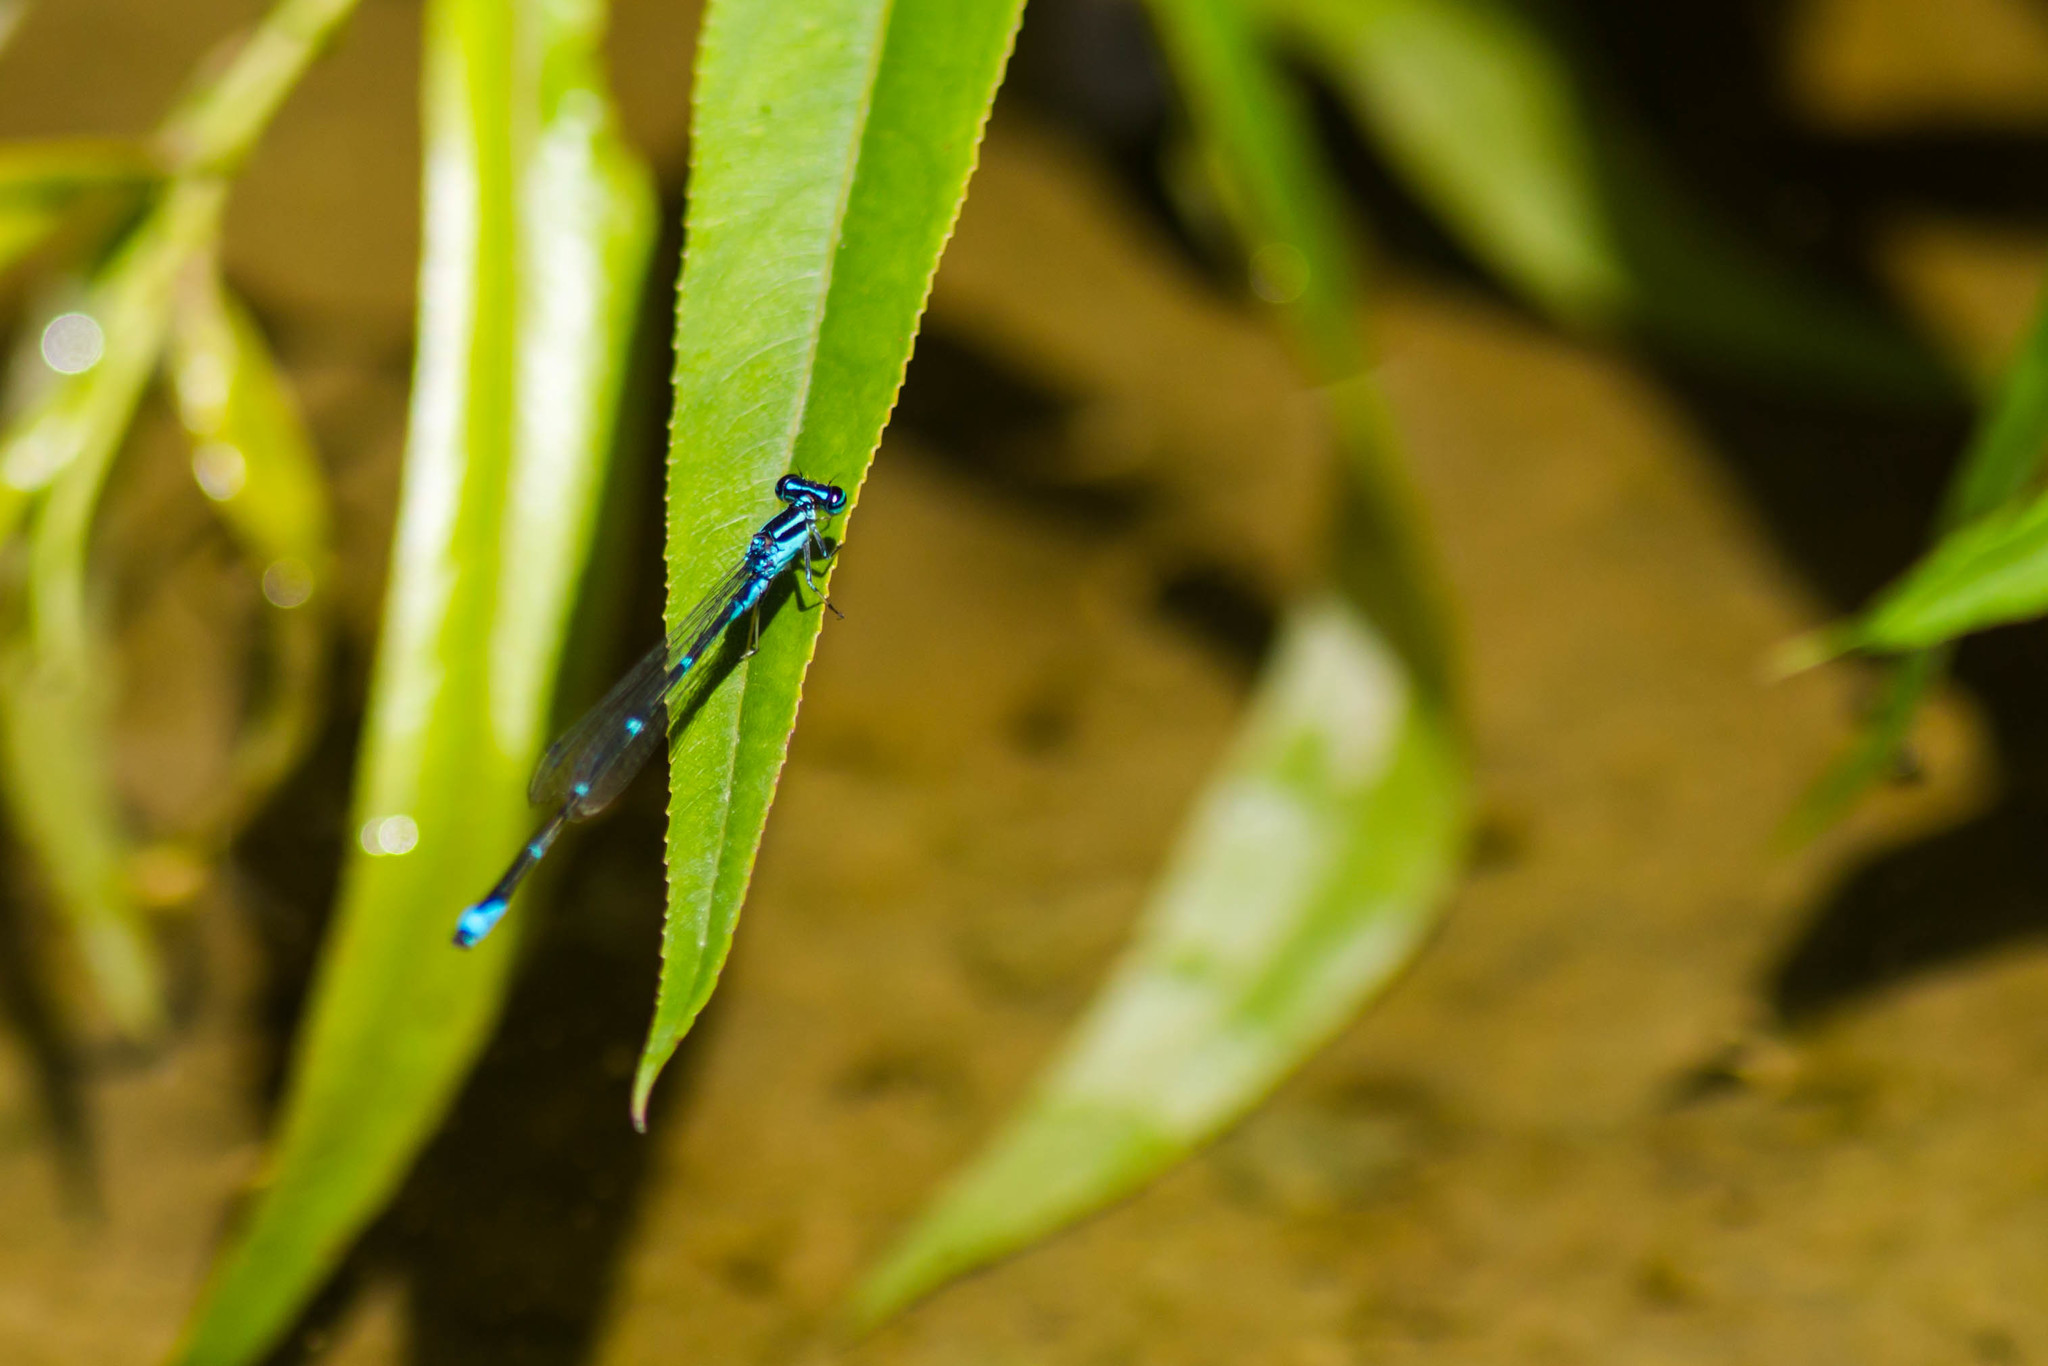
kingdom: Animalia
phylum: Arthropoda
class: Insecta
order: Odonata
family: Coenagrionidae
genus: Enallagma
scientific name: Enallagma exsulans
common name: Stream bluet
